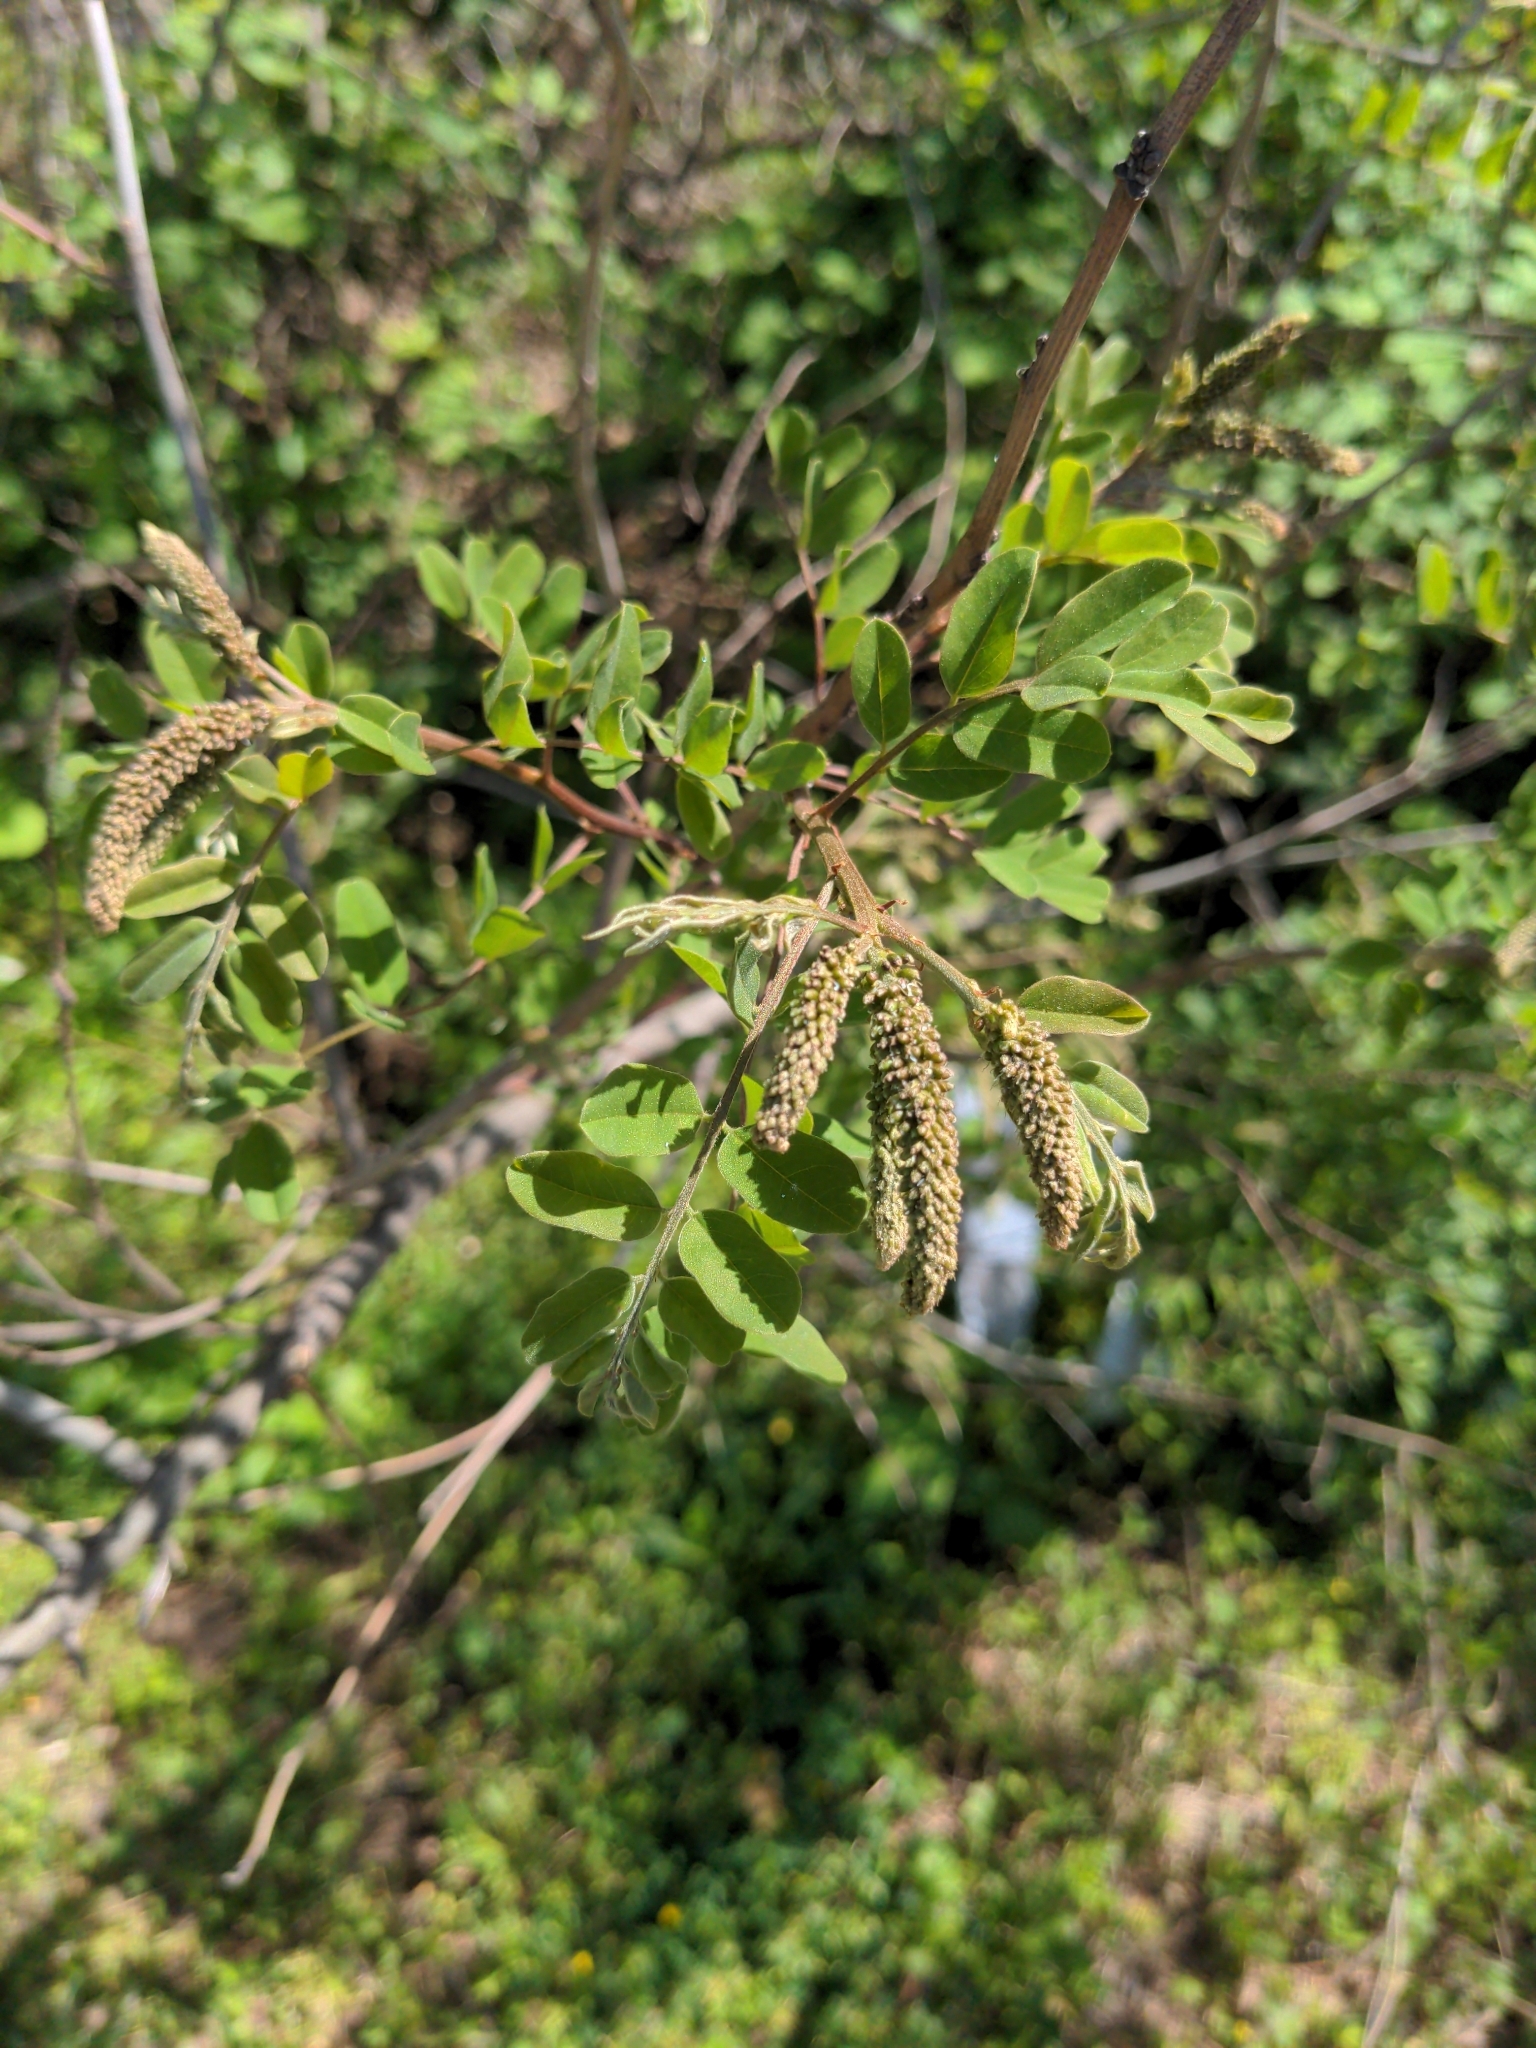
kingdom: Plantae
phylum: Tracheophyta
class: Magnoliopsida
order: Fabales
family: Fabaceae
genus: Amorpha
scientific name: Amorpha fruticosa
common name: False indigo
